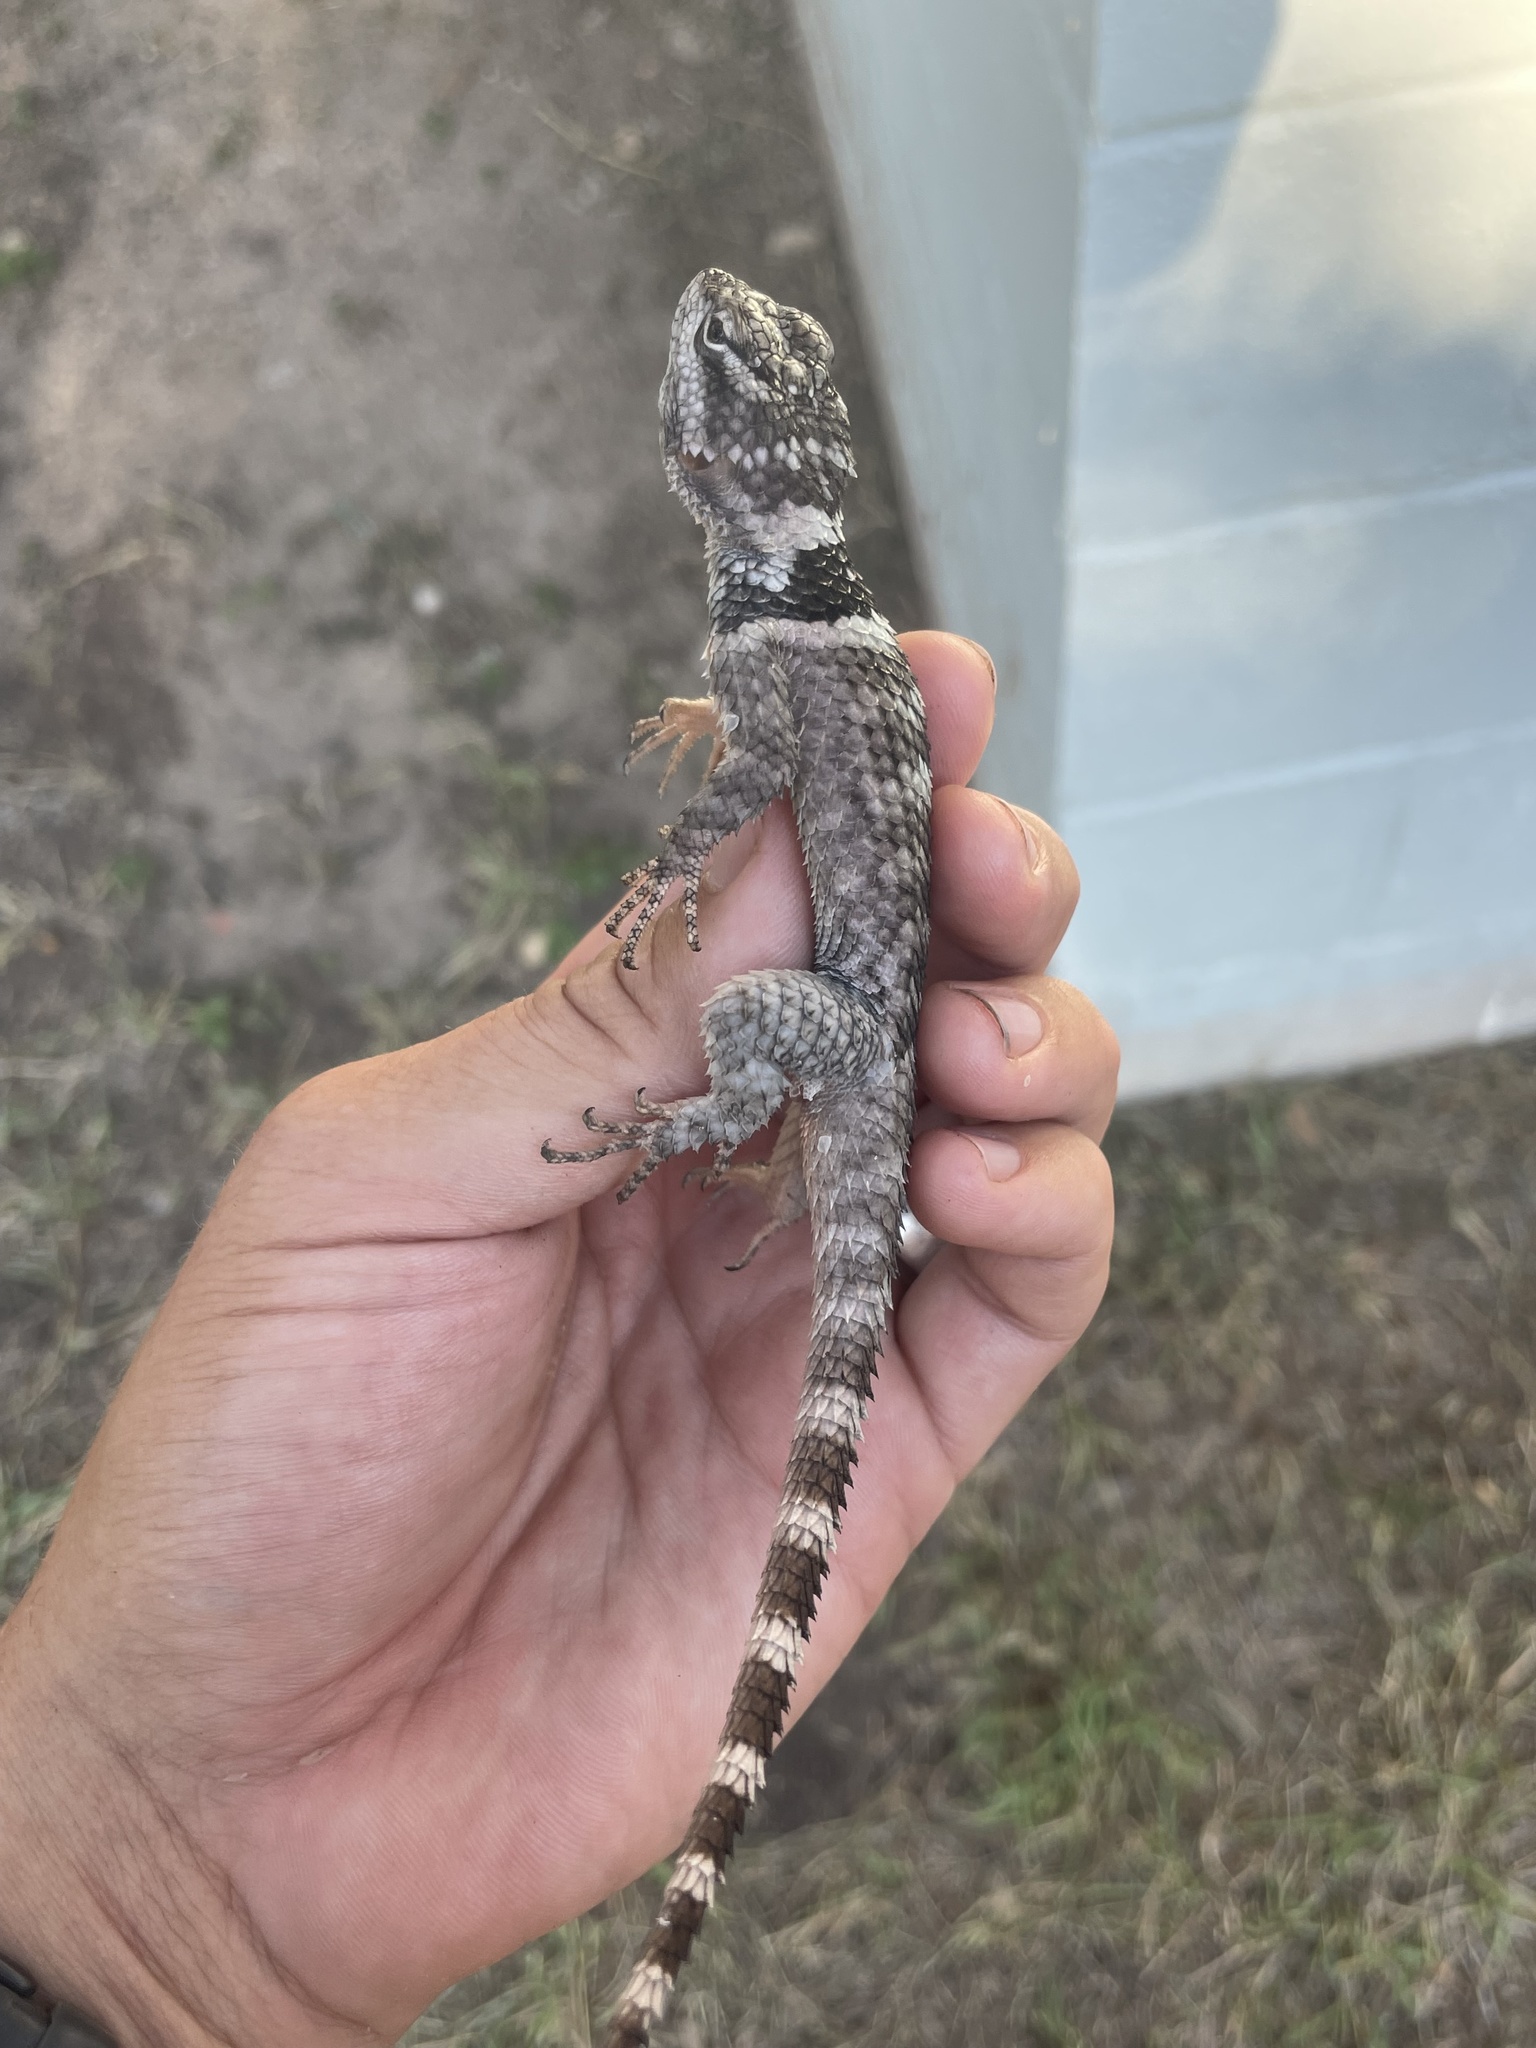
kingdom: Animalia
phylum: Chordata
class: Squamata
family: Phrynosomatidae
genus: Sceloporus
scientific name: Sceloporus poinsettii
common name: Crevice spiny lizard
